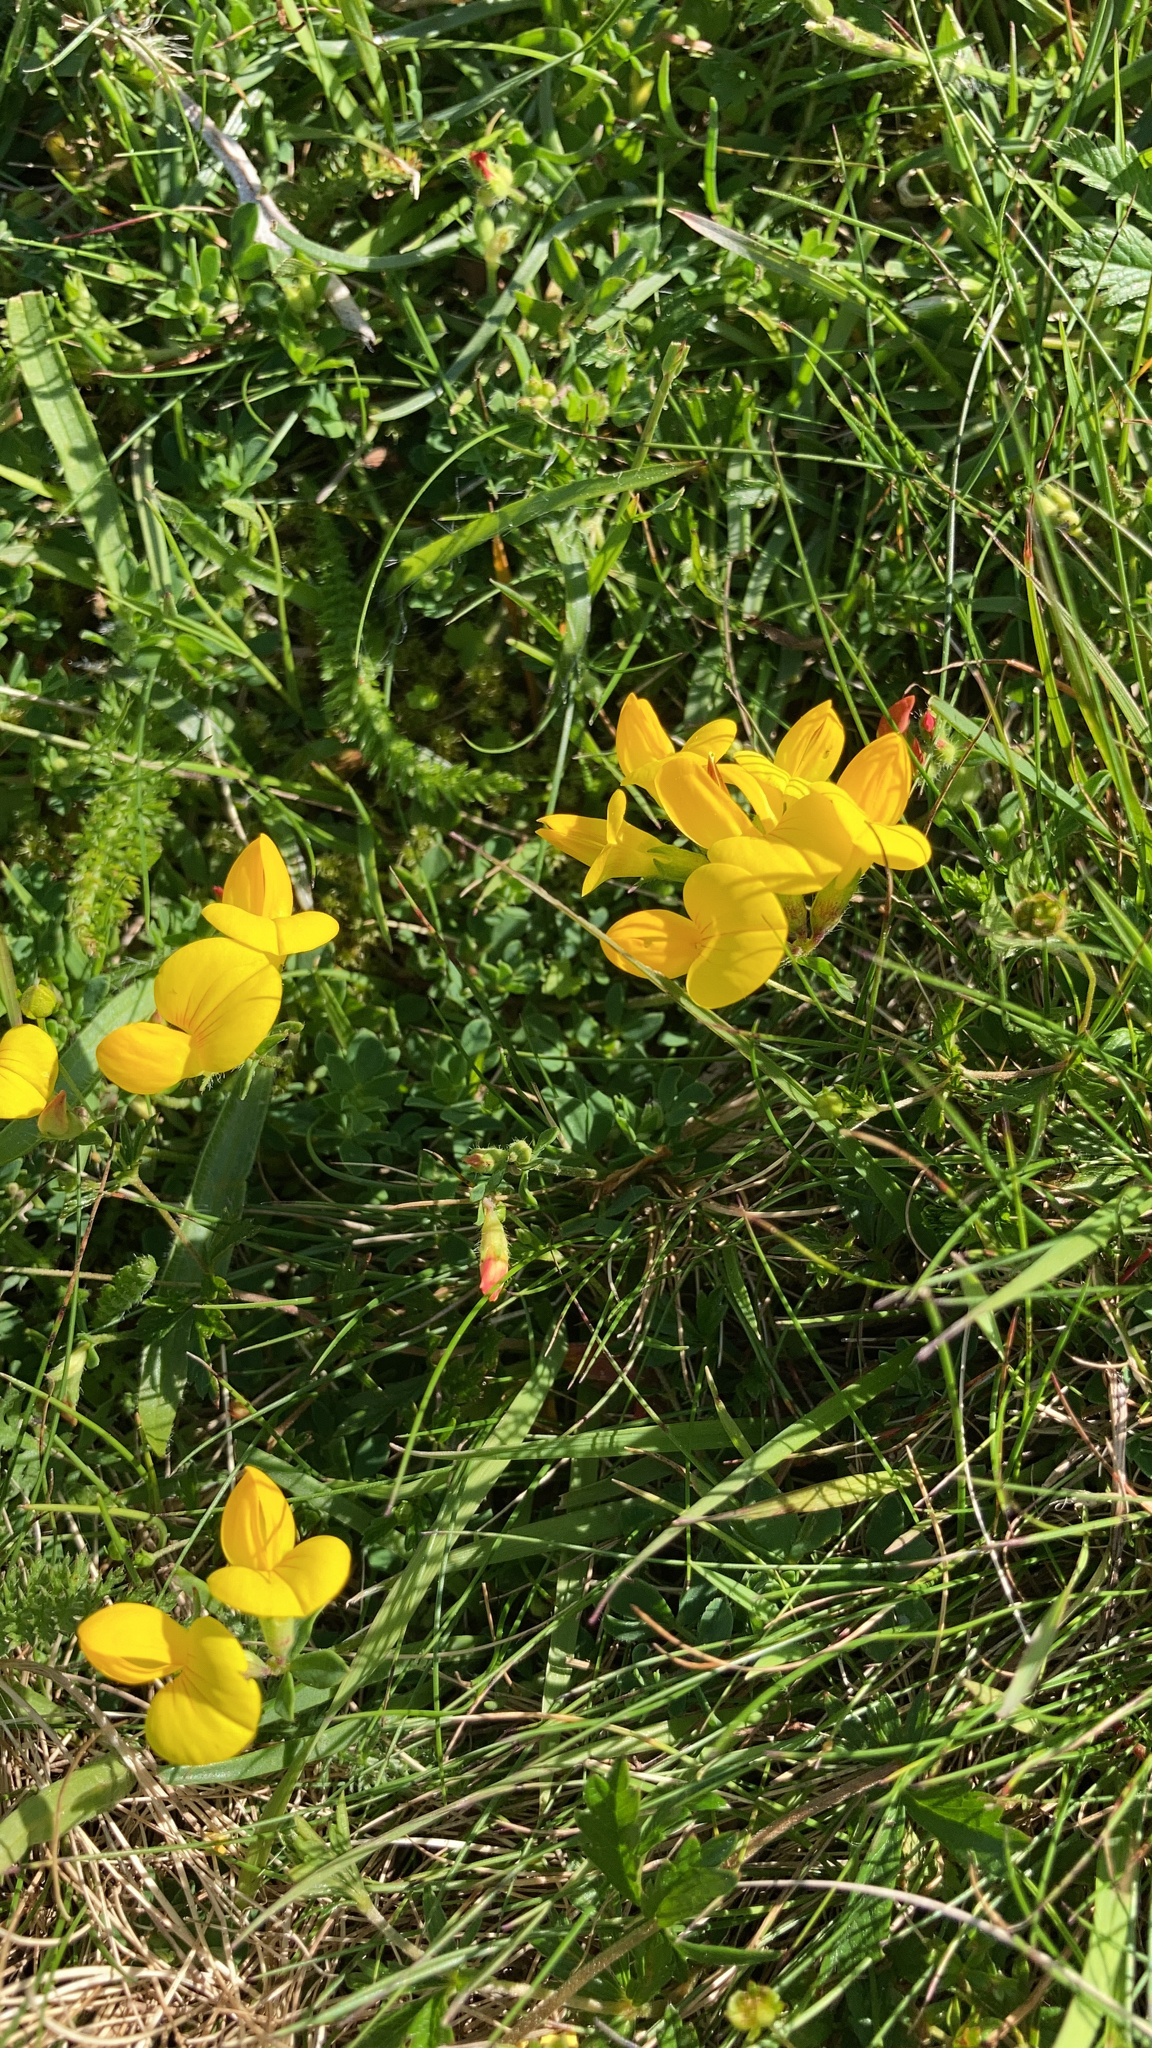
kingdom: Plantae
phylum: Tracheophyta
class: Magnoliopsida
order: Fabales
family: Fabaceae
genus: Lotus
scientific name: Lotus corniculatus
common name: Common bird's-foot-trefoil
